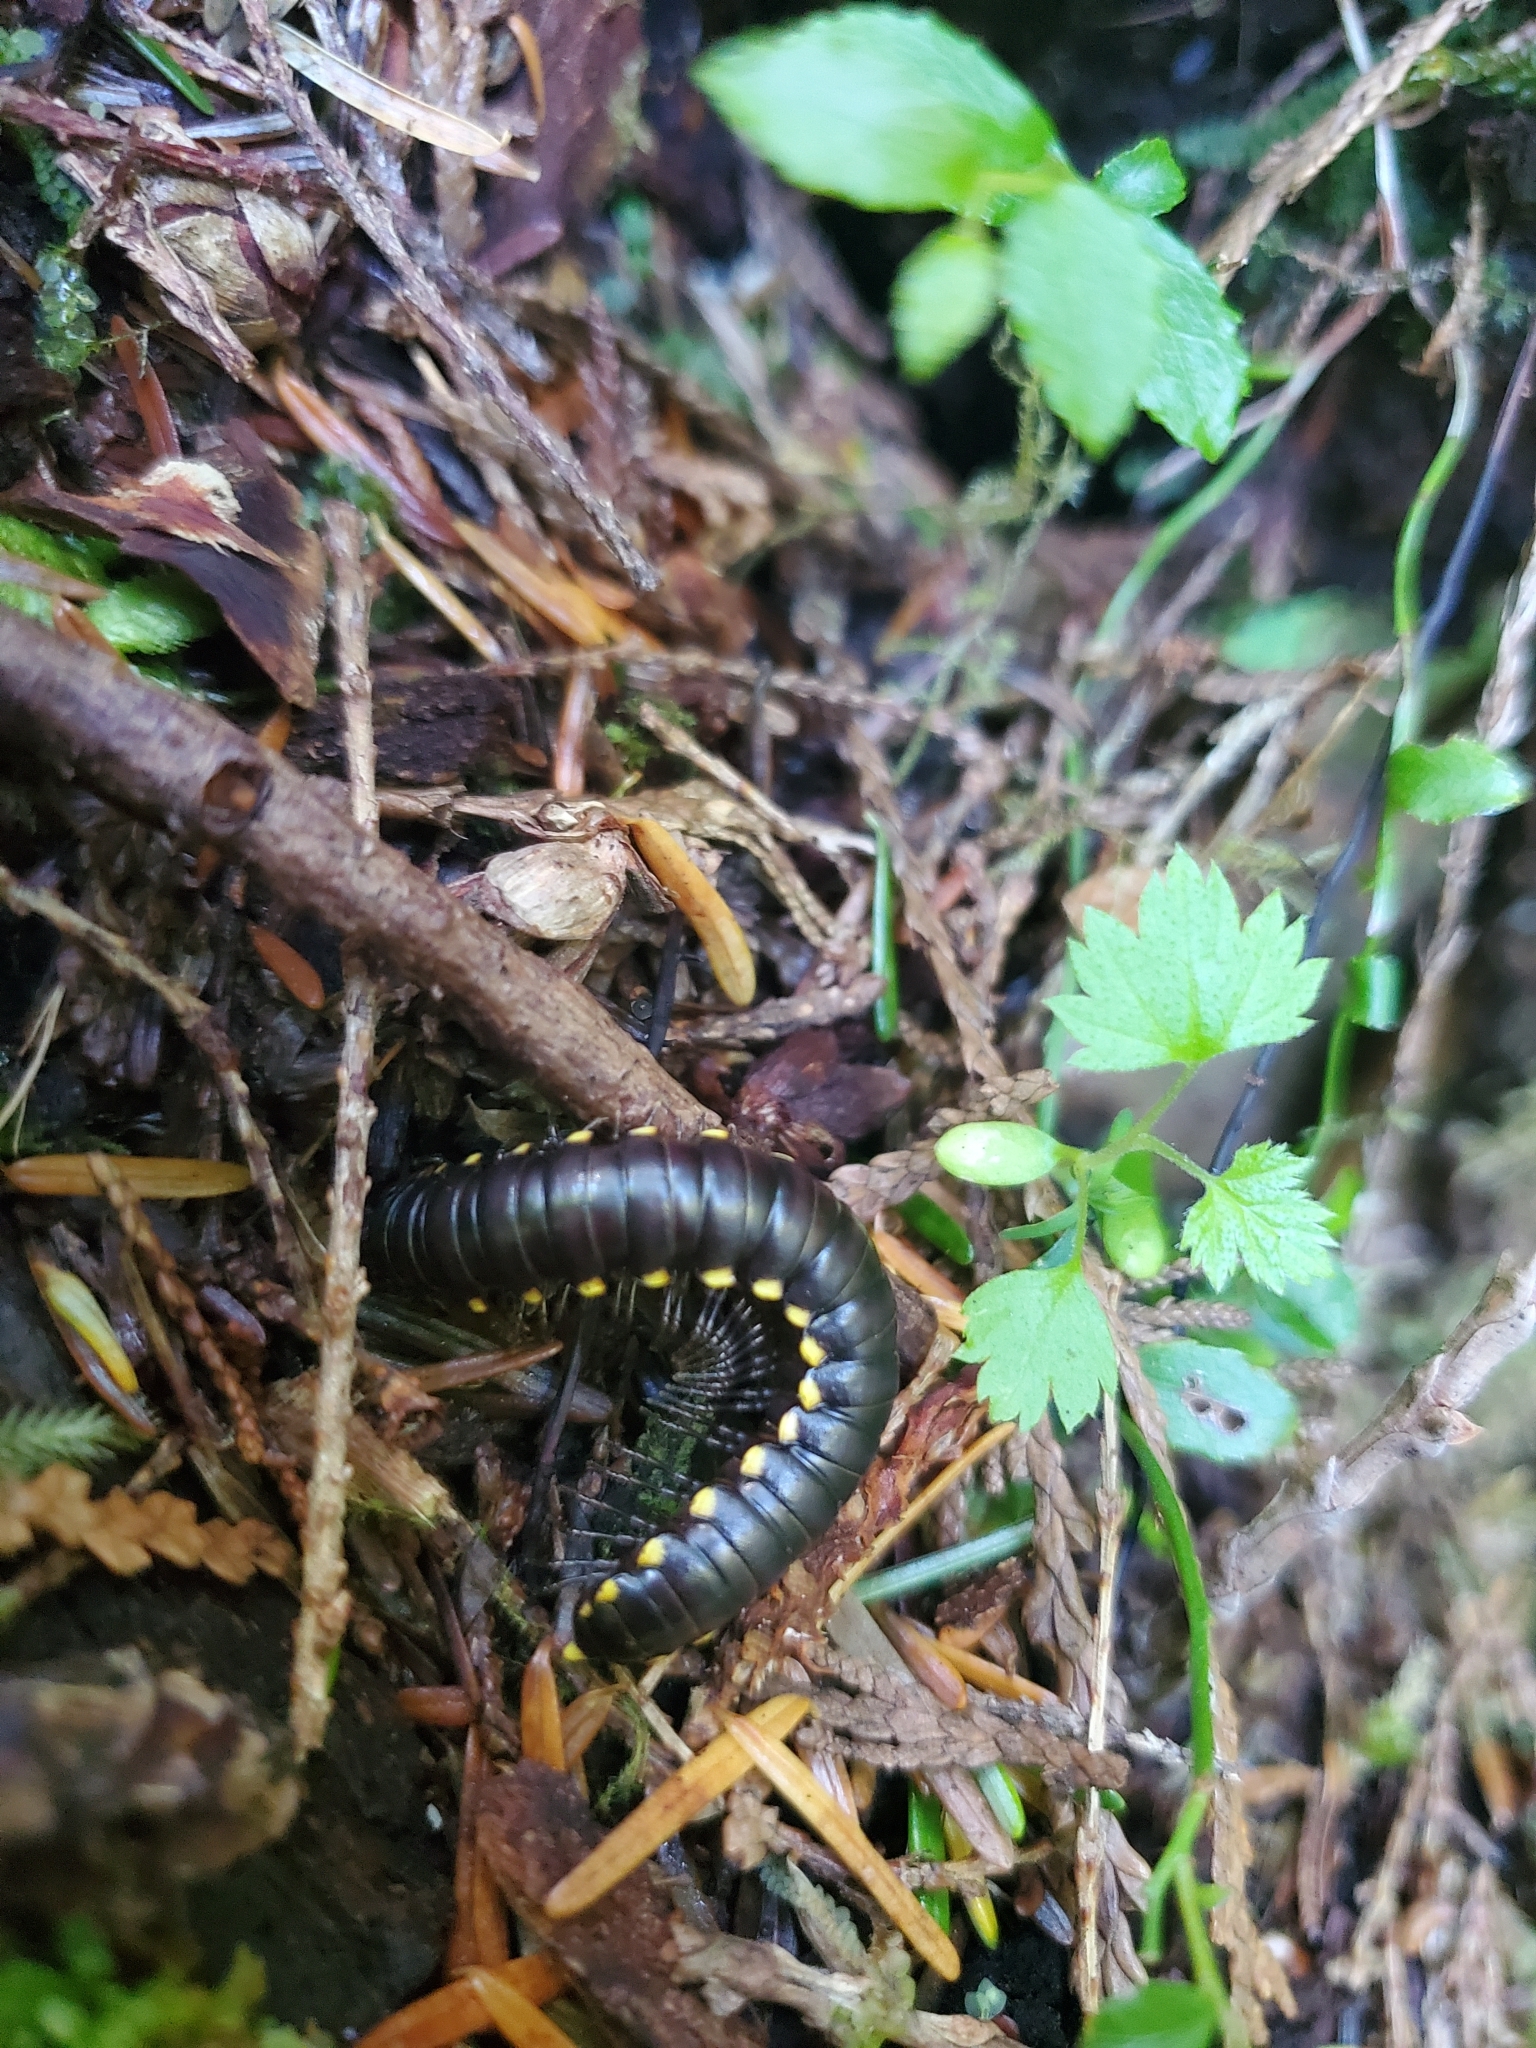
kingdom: Animalia
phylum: Arthropoda
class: Diplopoda
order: Polydesmida
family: Xystodesmidae
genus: Harpaphe
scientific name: Harpaphe haydeniana
